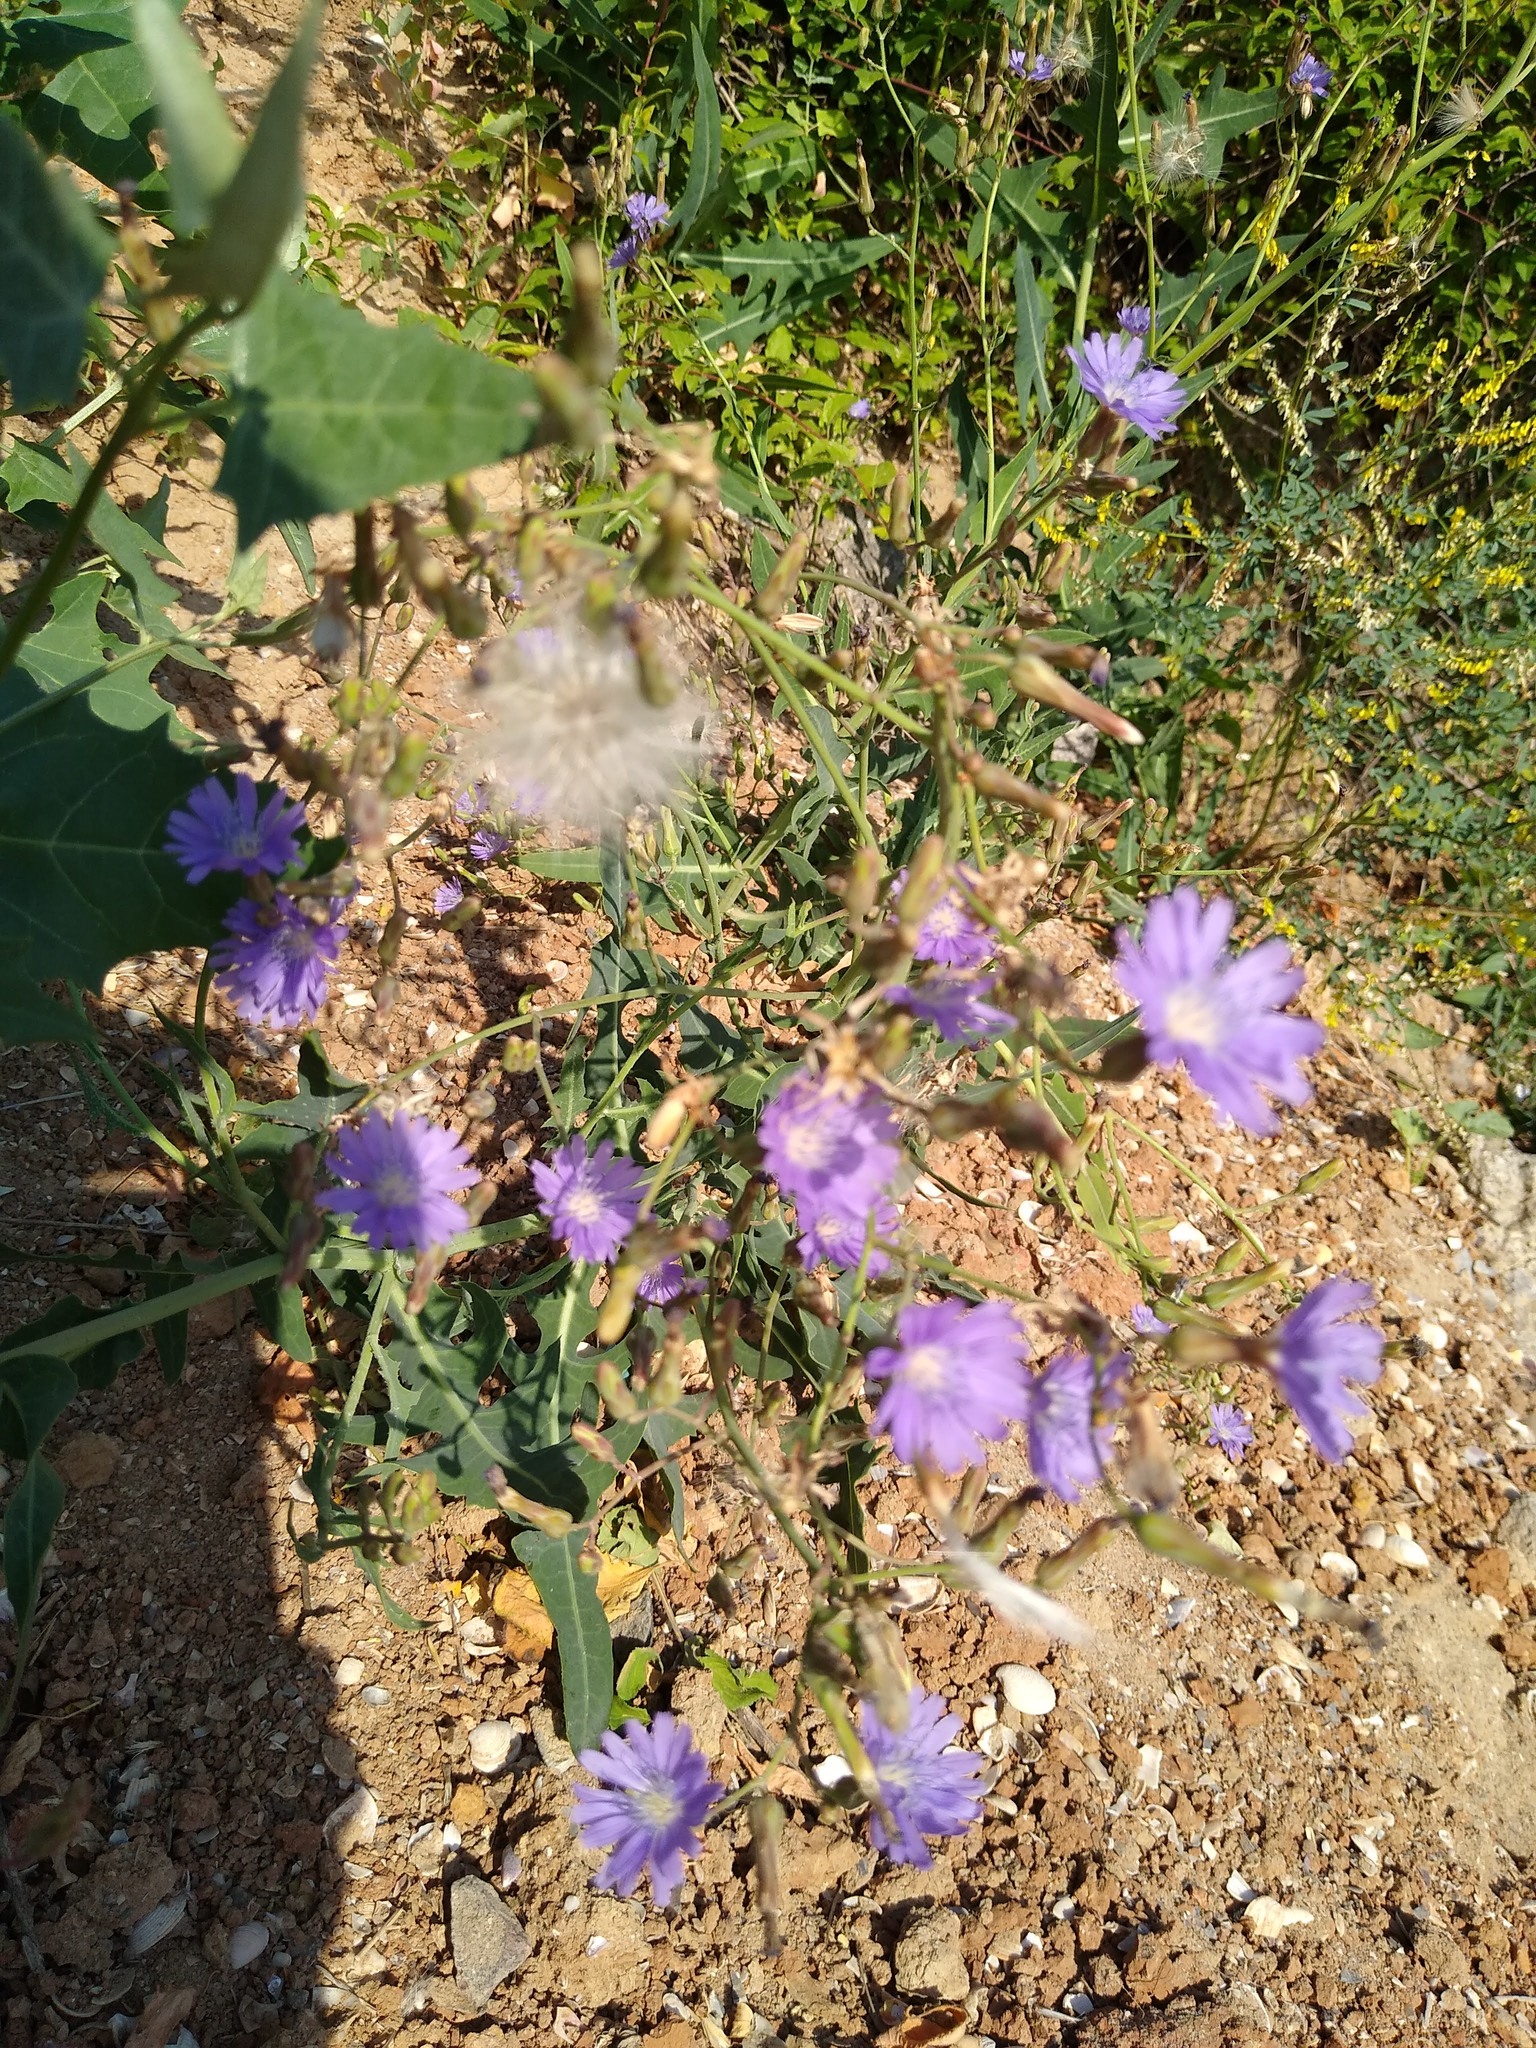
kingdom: Plantae
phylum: Tracheophyta
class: Magnoliopsida
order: Asterales
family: Asteraceae
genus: Lactuca
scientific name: Lactuca tatarica
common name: Blue lettuce
